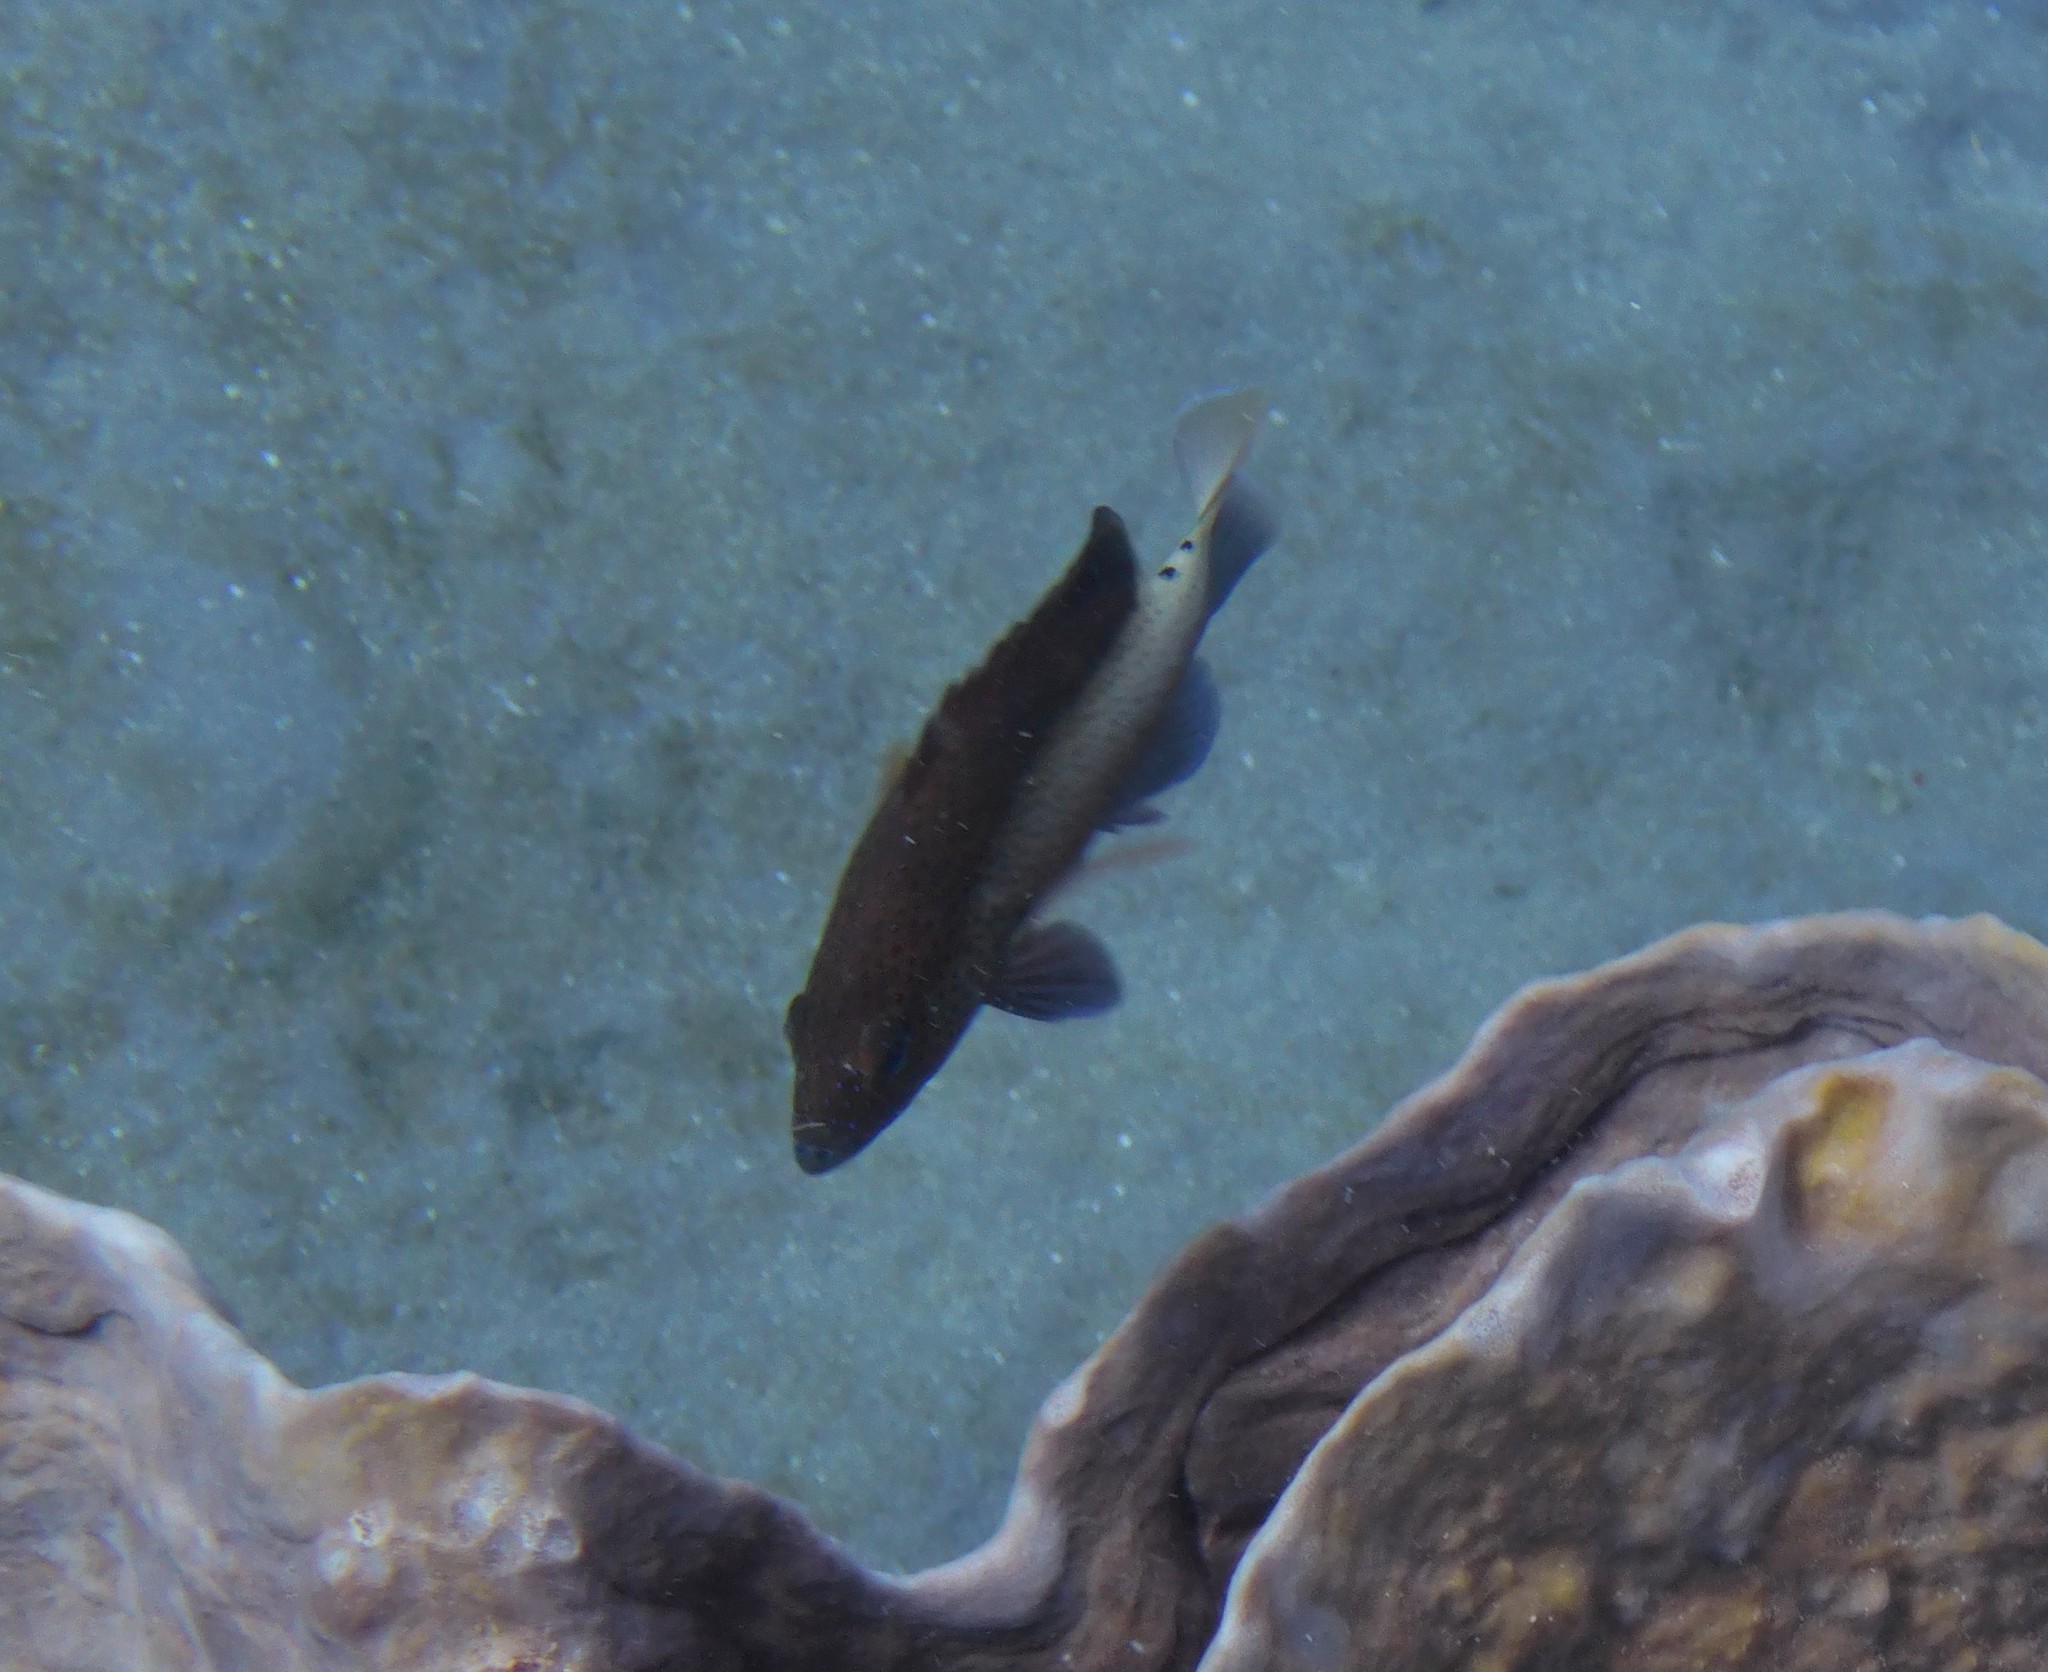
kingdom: Animalia
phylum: Chordata
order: Perciformes
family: Serranidae
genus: Cephalopholis
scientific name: Cephalopholis fulva
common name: Butterfish
